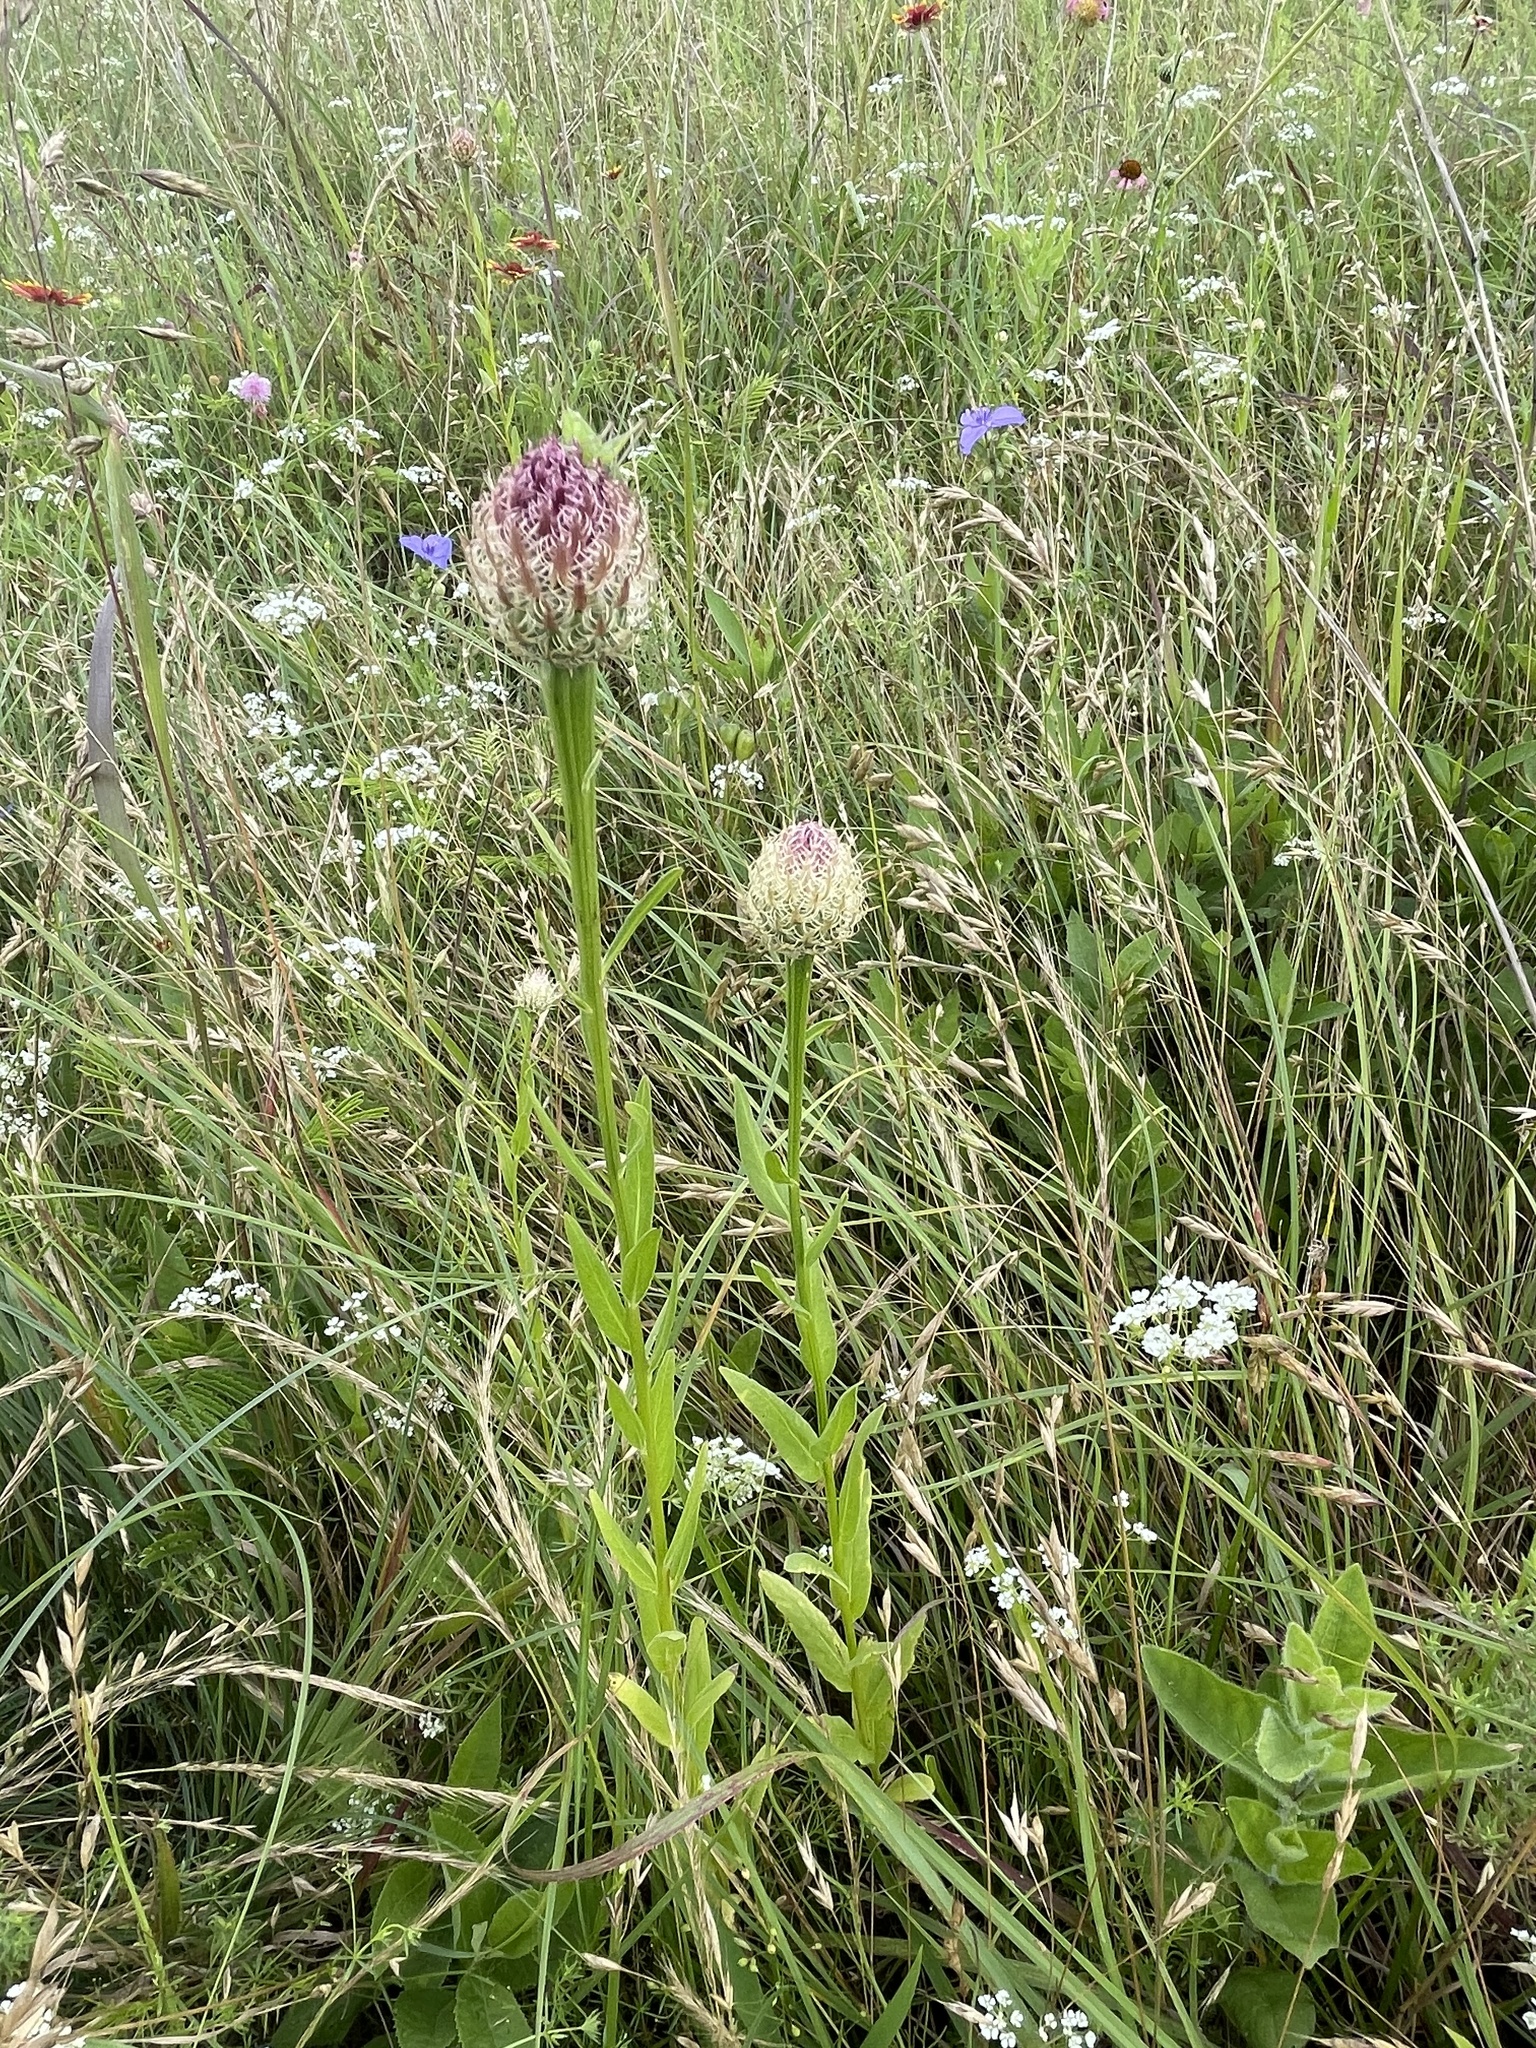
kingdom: Plantae
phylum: Tracheophyta
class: Magnoliopsida
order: Asterales
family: Asteraceae
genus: Plectocephalus
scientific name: Plectocephalus americanus
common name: American basket-flower
